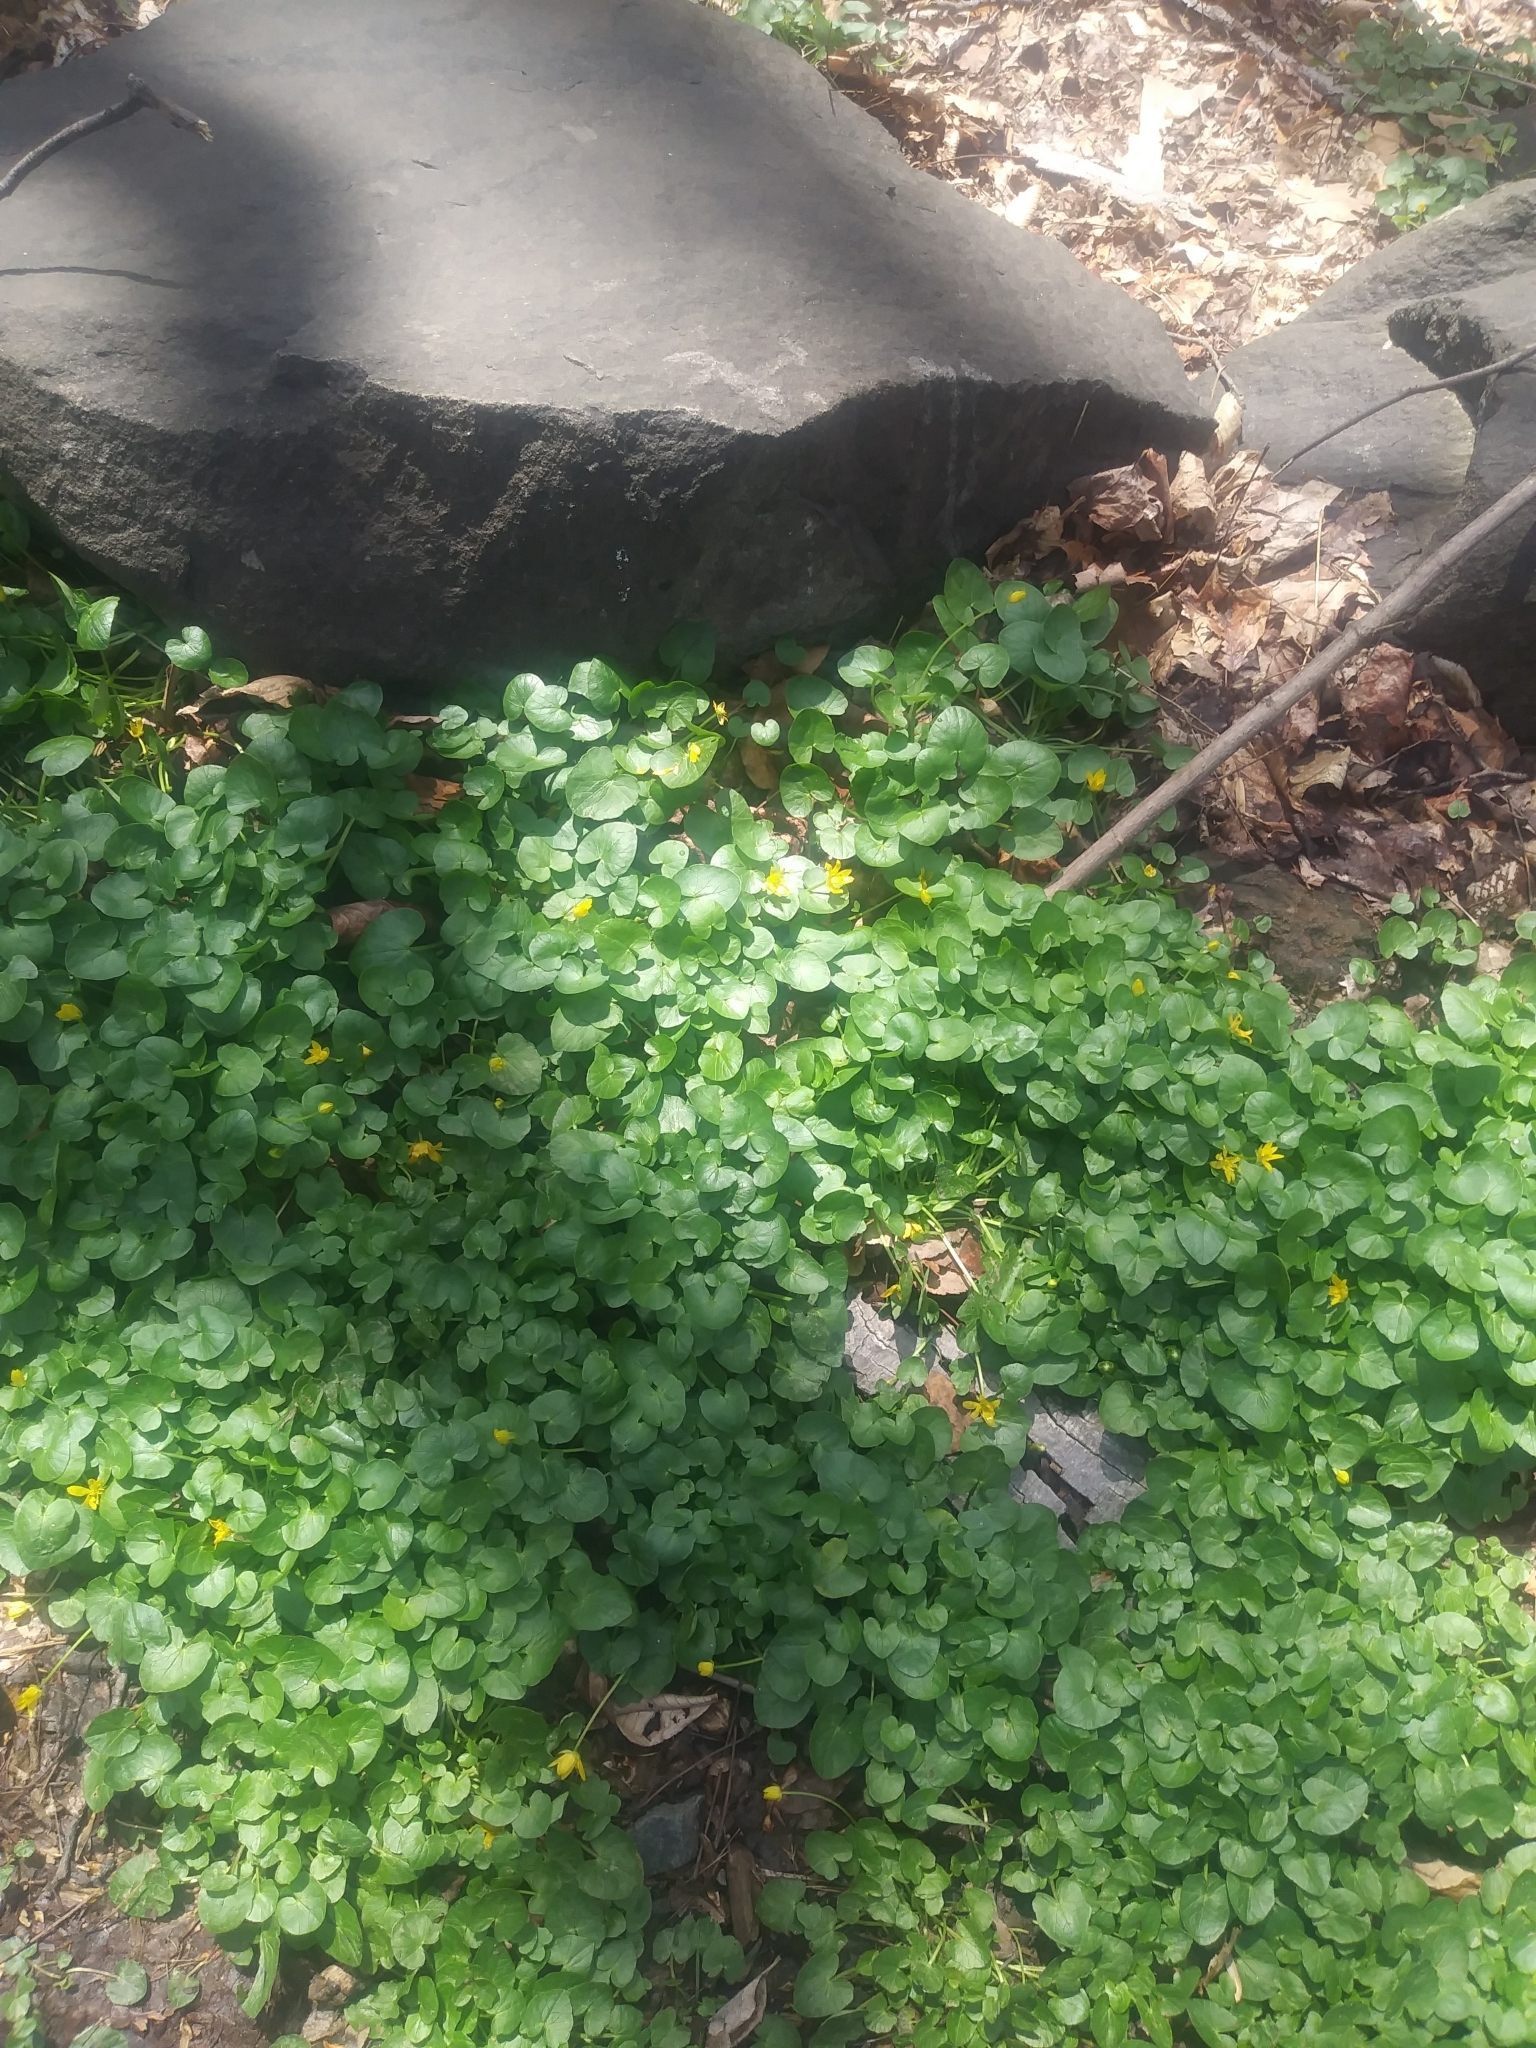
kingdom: Plantae
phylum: Tracheophyta
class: Magnoliopsida
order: Ranunculales
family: Ranunculaceae
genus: Ficaria
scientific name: Ficaria verna
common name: Lesser celandine
